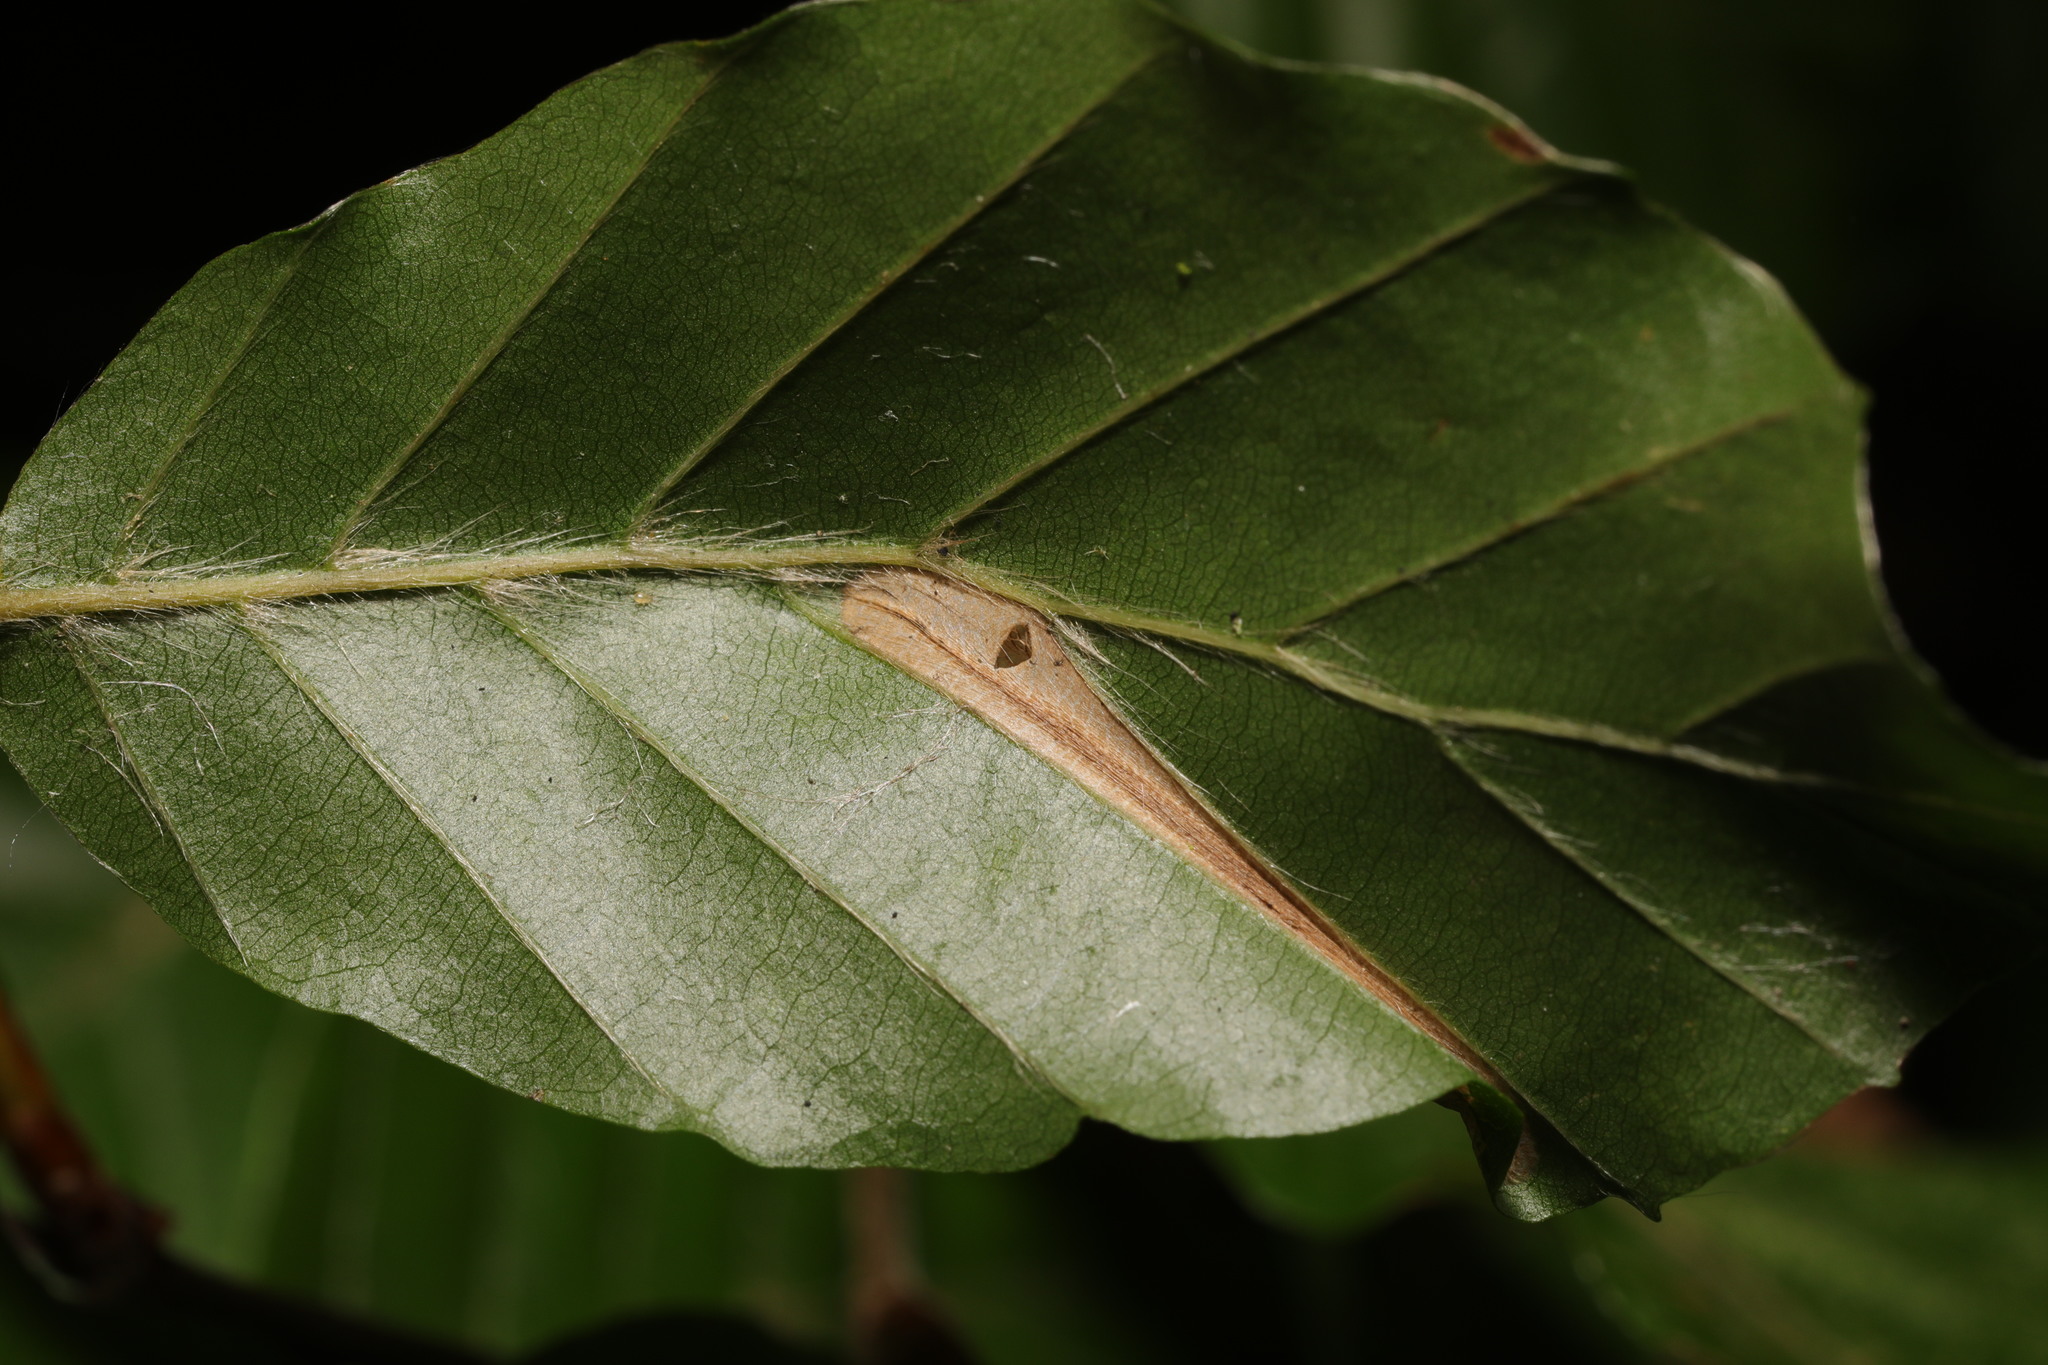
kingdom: Animalia
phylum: Arthropoda
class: Insecta
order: Lepidoptera
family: Gracillariidae
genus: Phyllonorycter
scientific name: Phyllonorycter maestingella
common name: Beech midget
